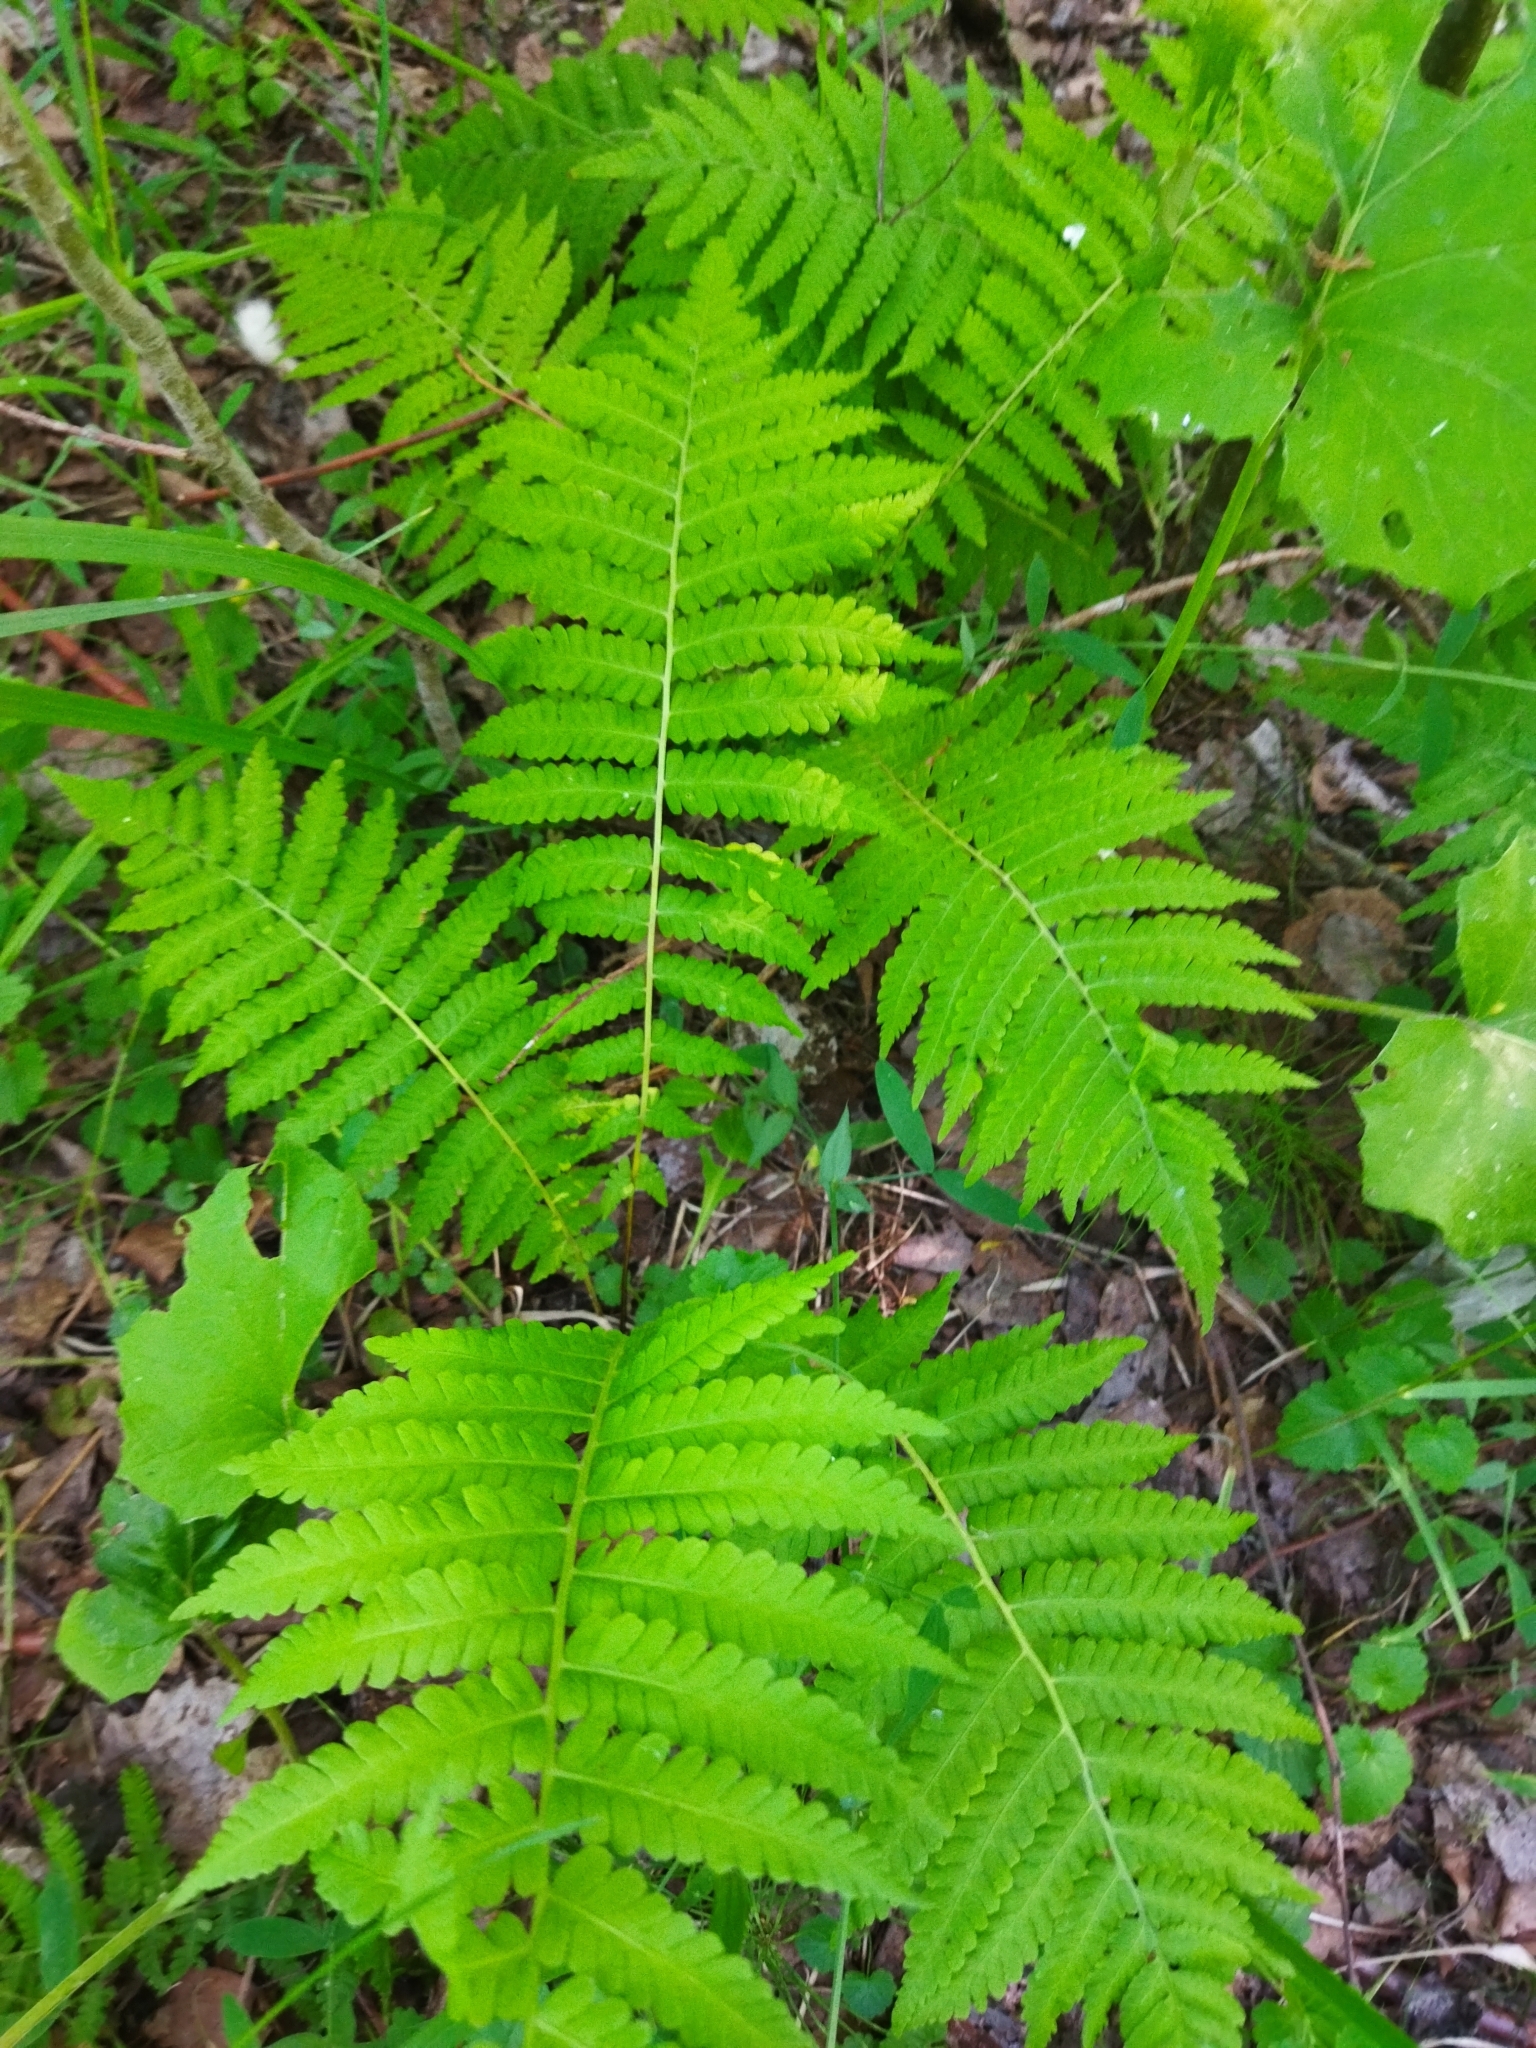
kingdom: Plantae
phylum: Tracheophyta
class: Polypodiopsida
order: Polypodiales
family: Dryopteridaceae
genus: Dryopteris
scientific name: Dryopteris filix-mas
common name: Male fern
